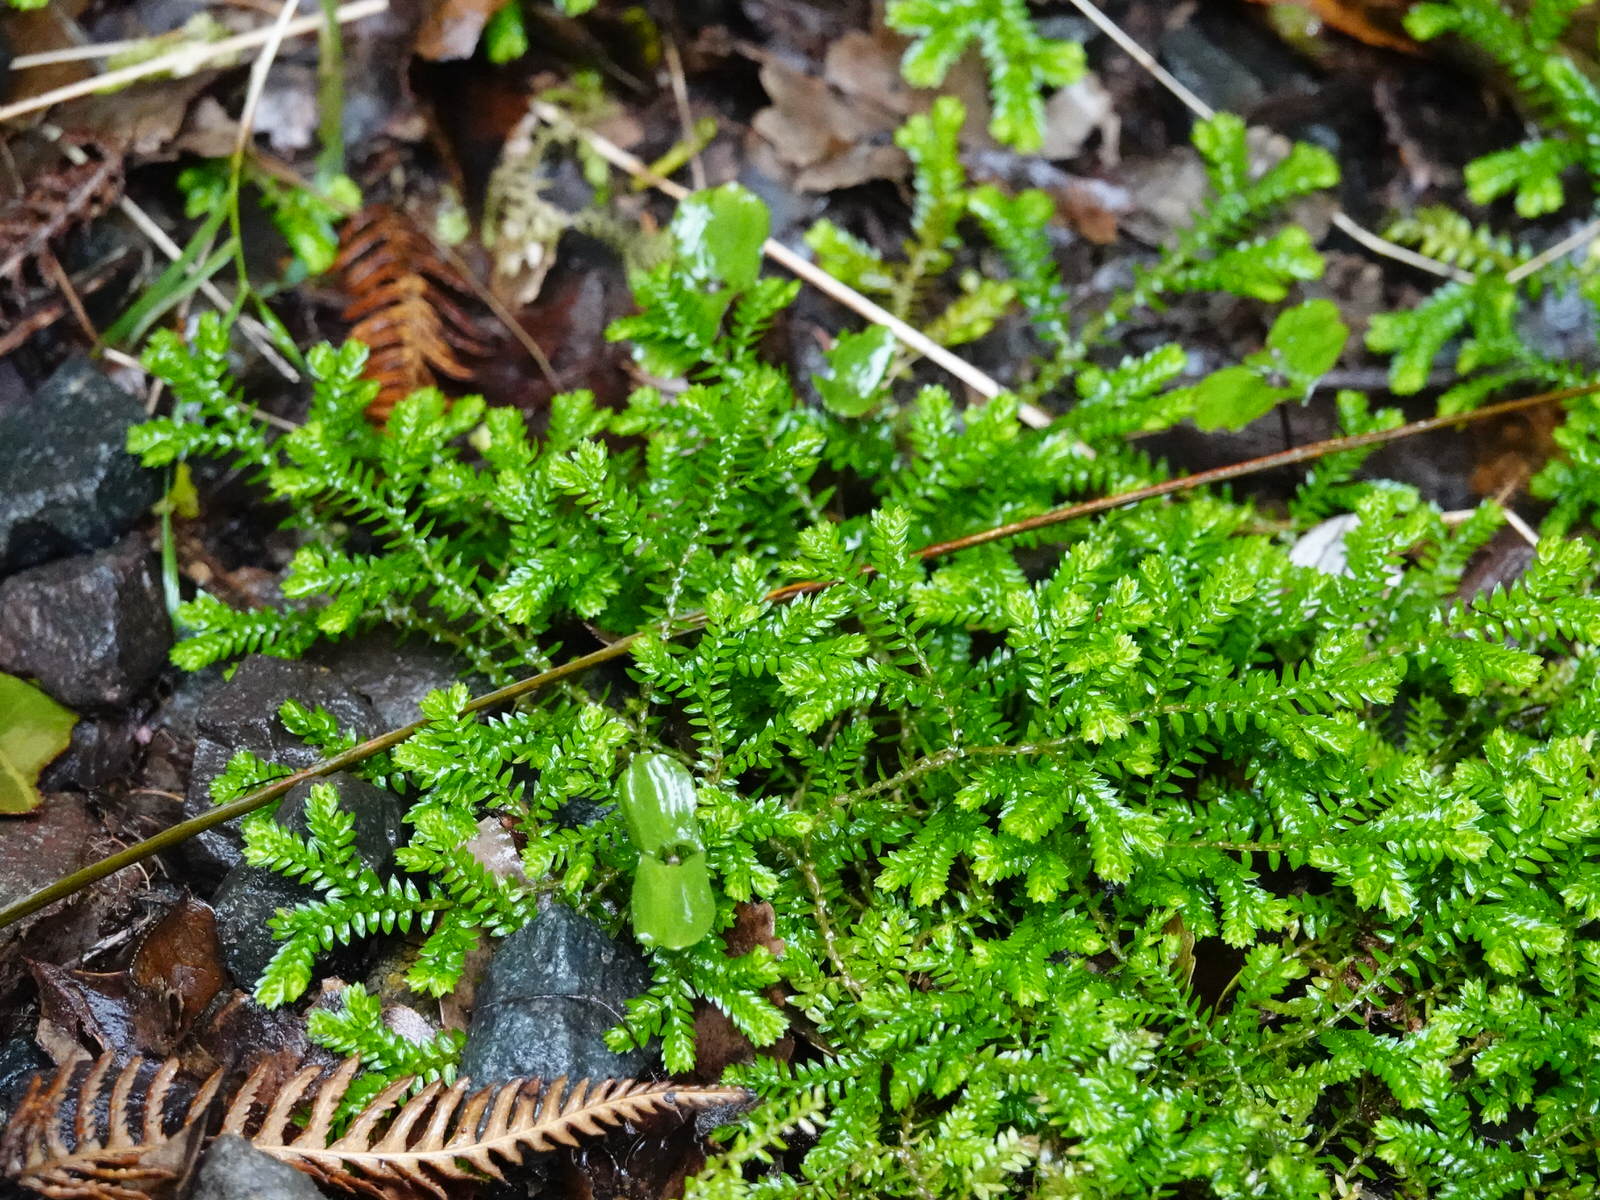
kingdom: Plantae
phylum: Tracheophyta
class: Lycopodiopsida
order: Selaginellales
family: Selaginellaceae
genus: Selaginella
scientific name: Selaginella kraussiana
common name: Krauss' spikemoss
